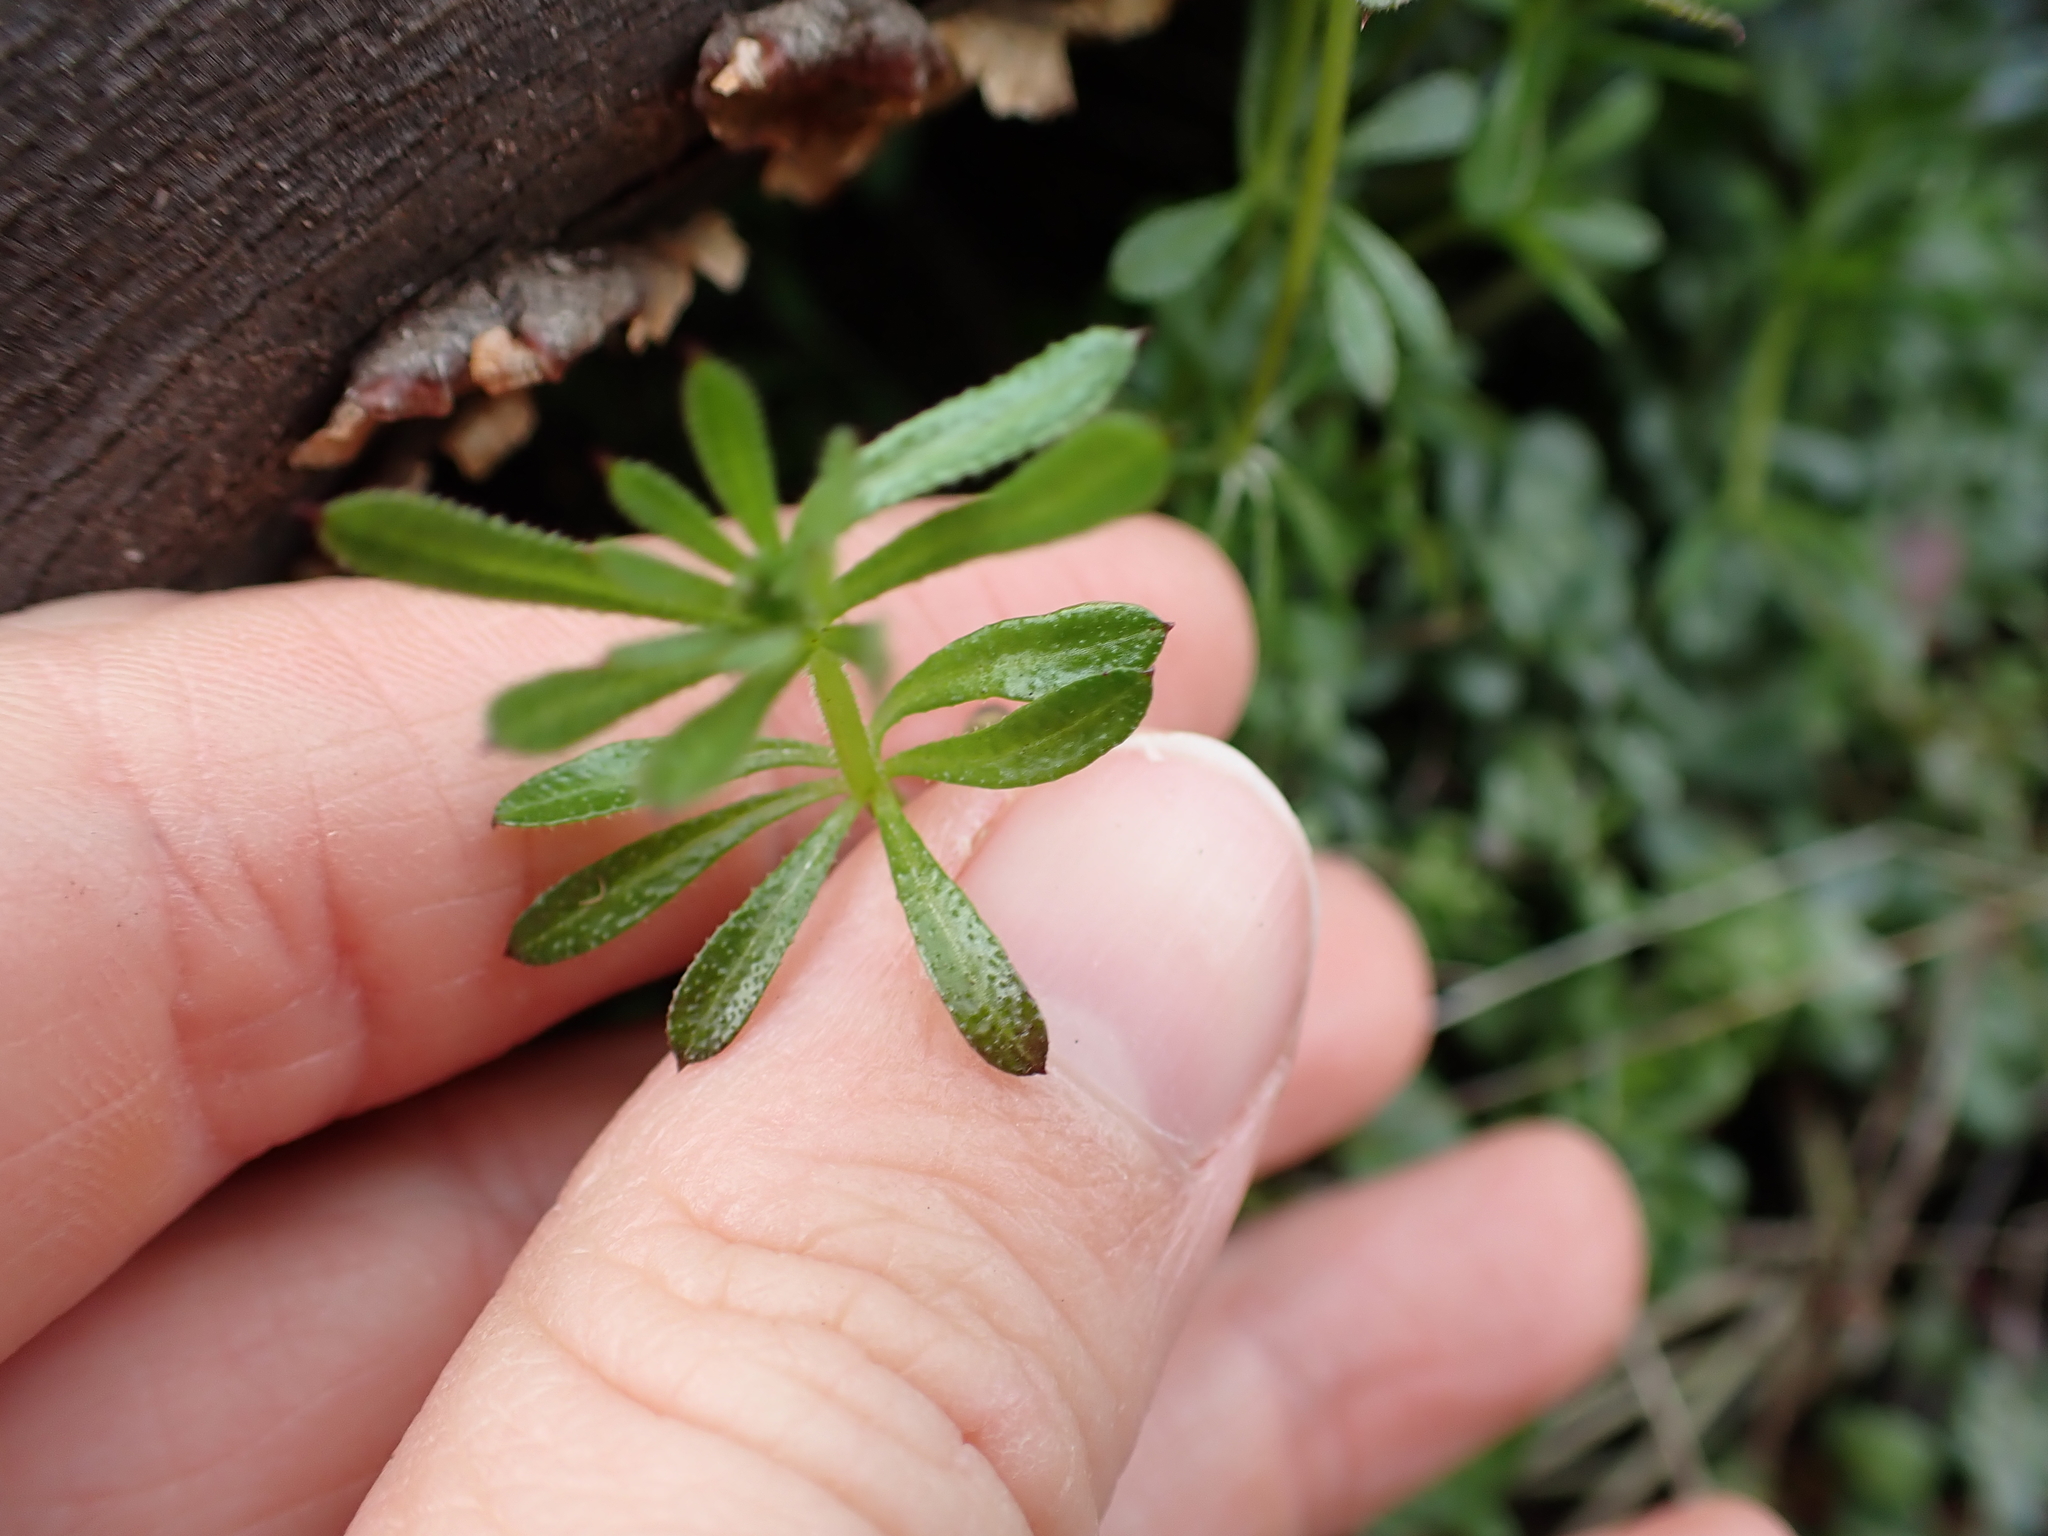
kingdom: Plantae
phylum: Tracheophyta
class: Magnoliopsida
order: Gentianales
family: Rubiaceae
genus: Galium
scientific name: Galium aparine
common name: Cleavers
